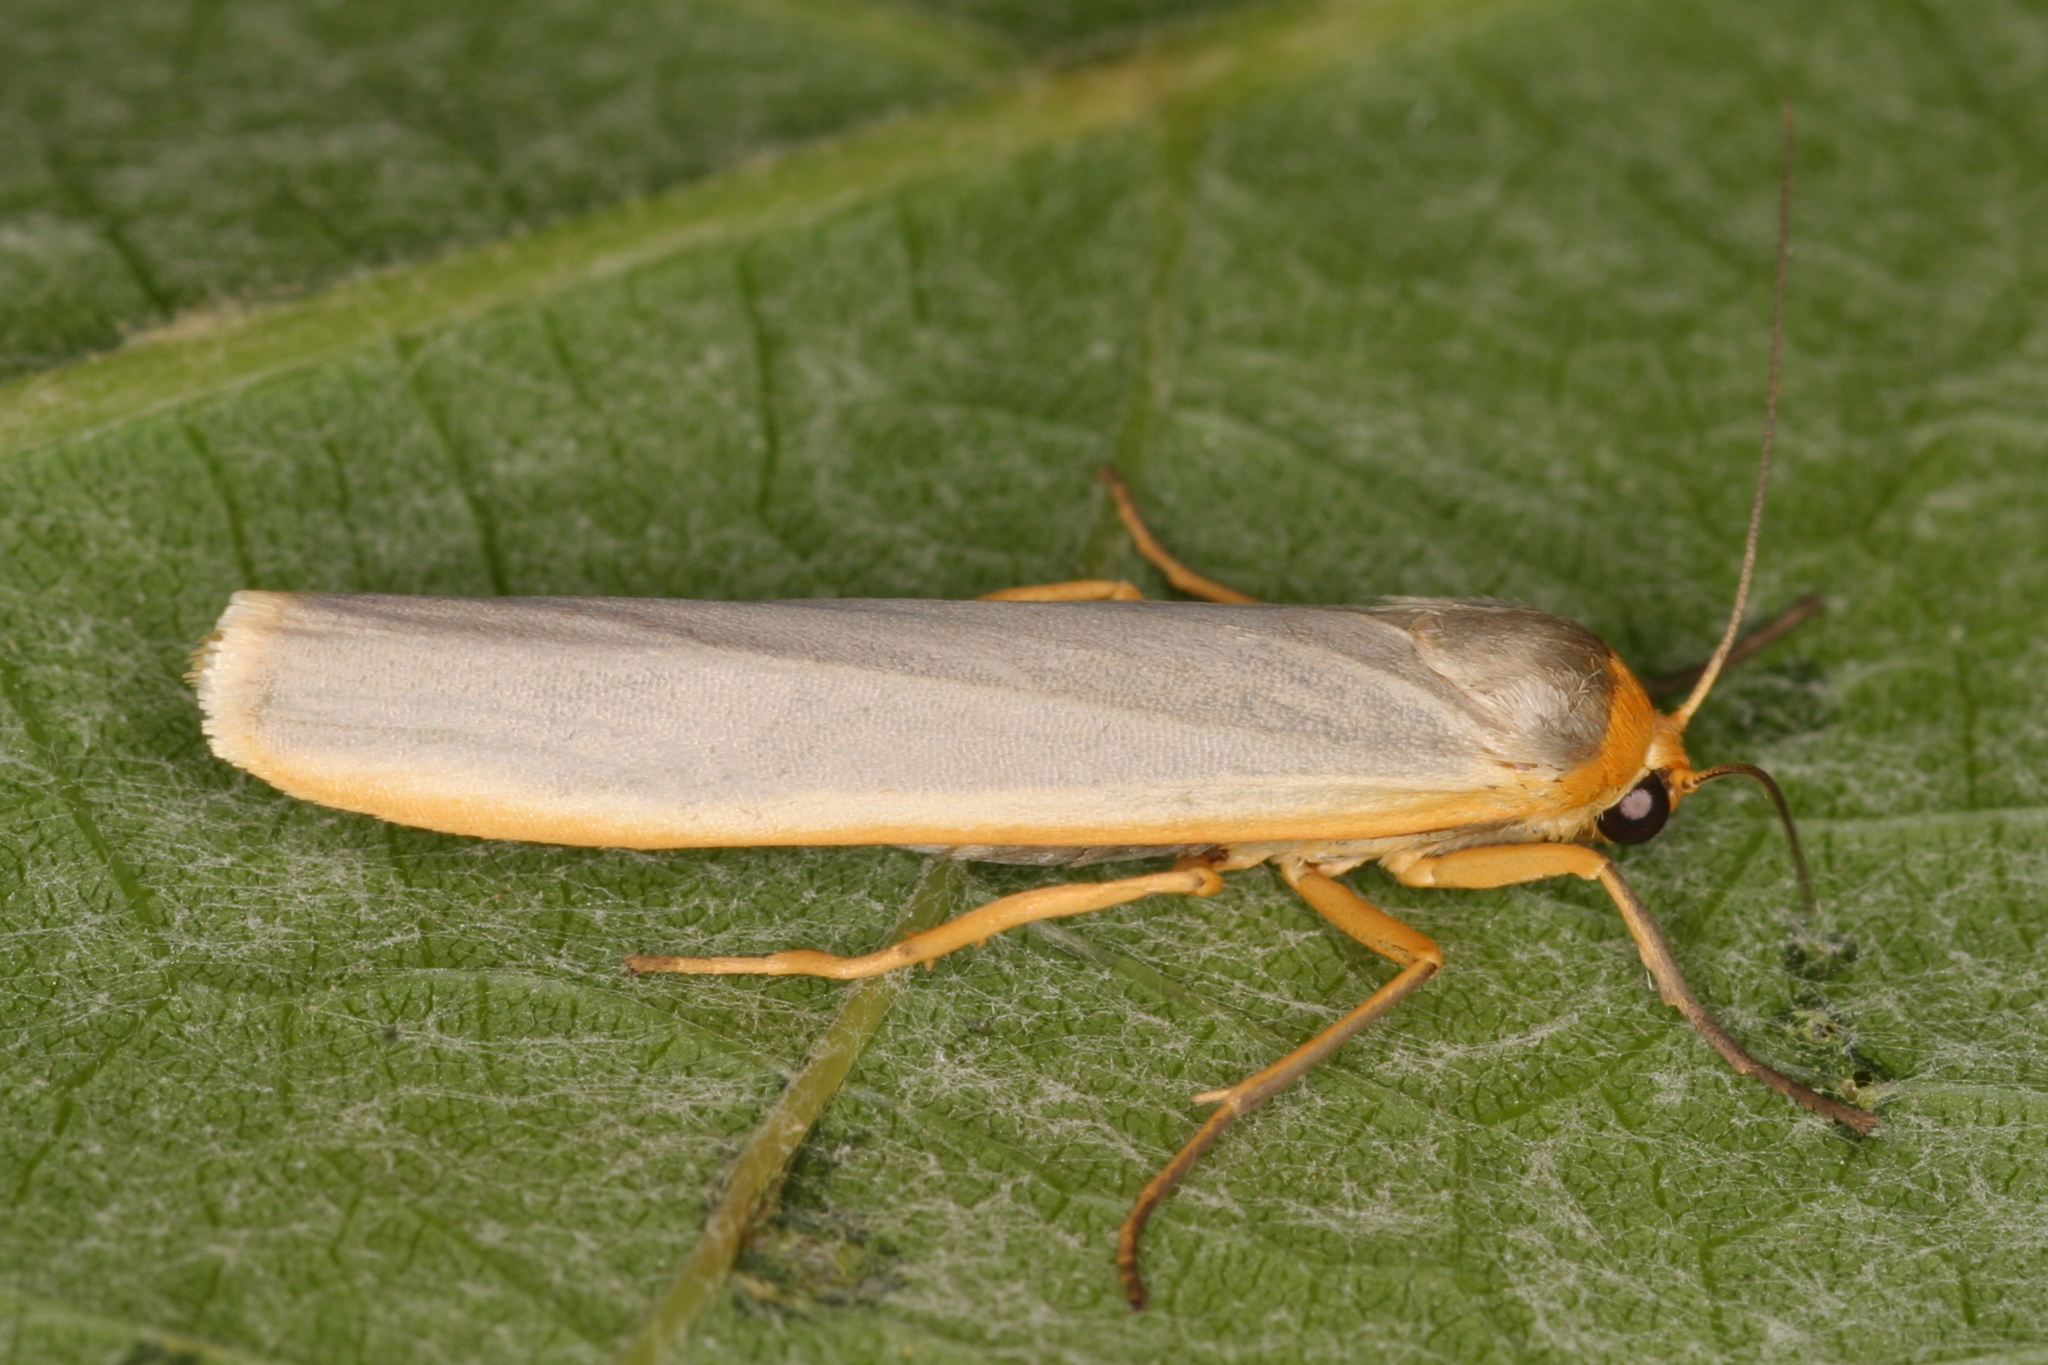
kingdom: Animalia
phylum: Arthropoda
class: Insecta
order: Lepidoptera
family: Erebidae
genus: Manulea
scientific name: Manulea complana
